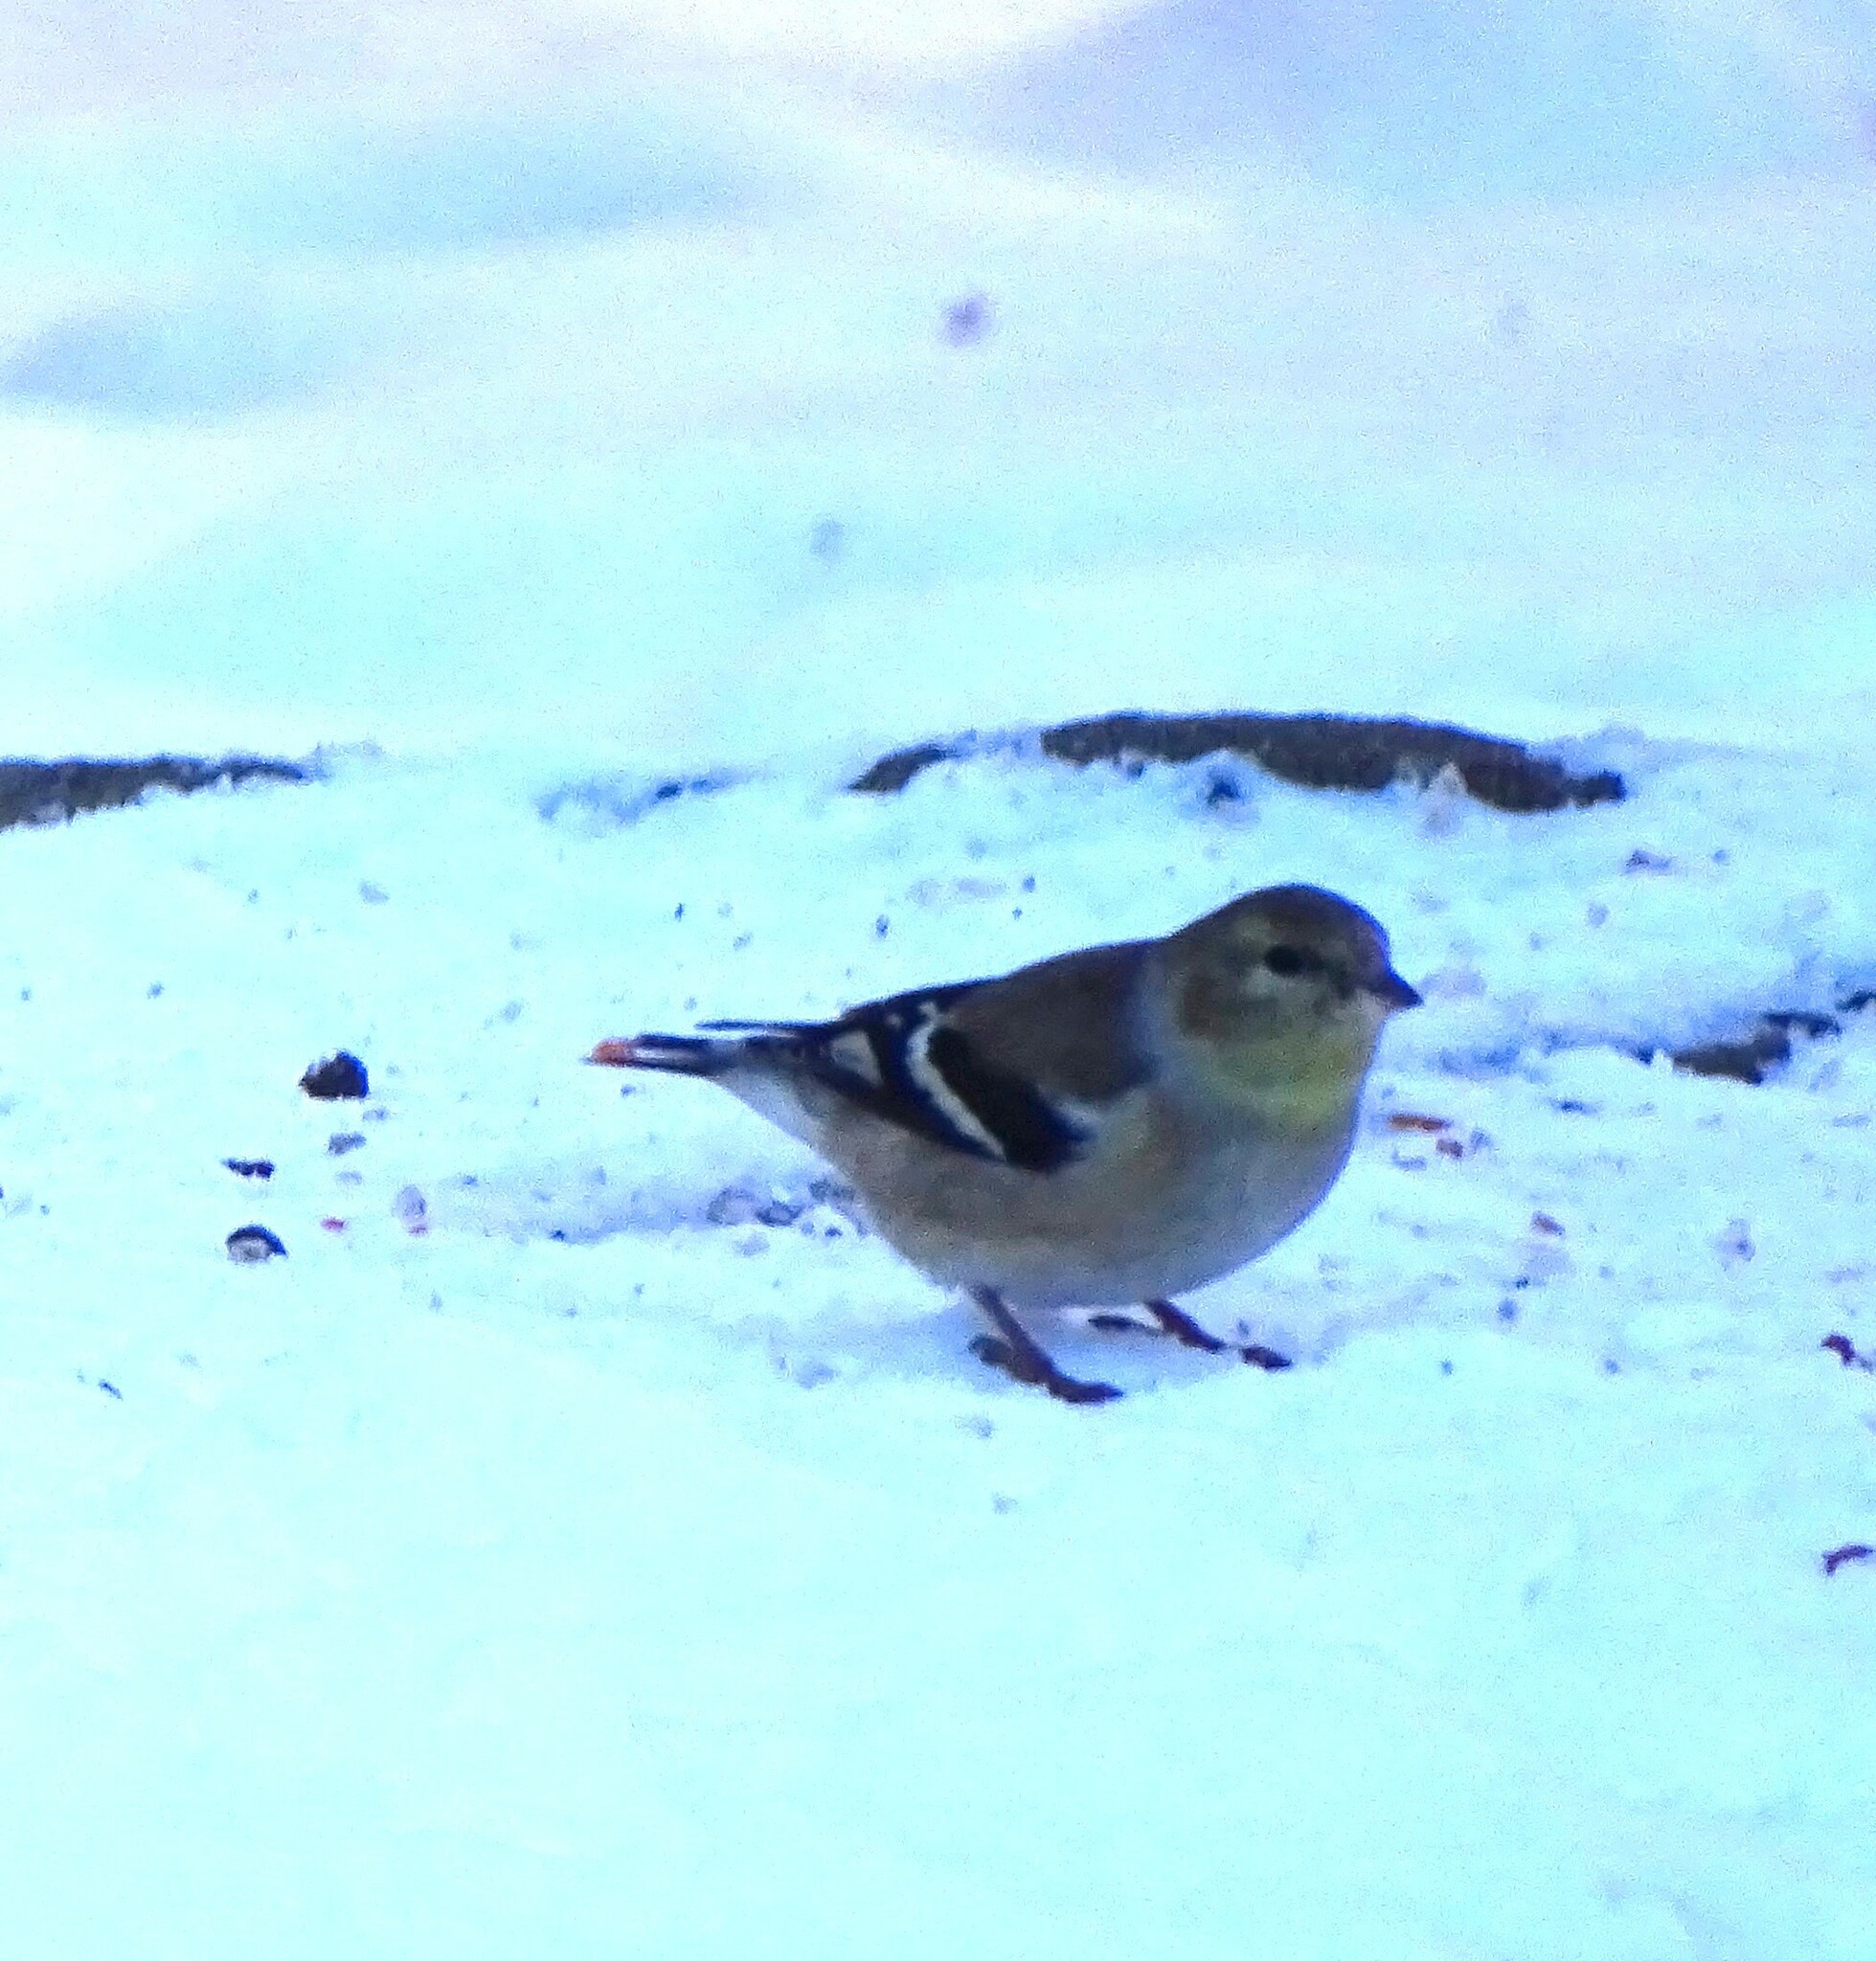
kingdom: Animalia
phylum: Chordata
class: Aves
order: Passeriformes
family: Fringillidae
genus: Spinus
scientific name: Spinus tristis
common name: American goldfinch
